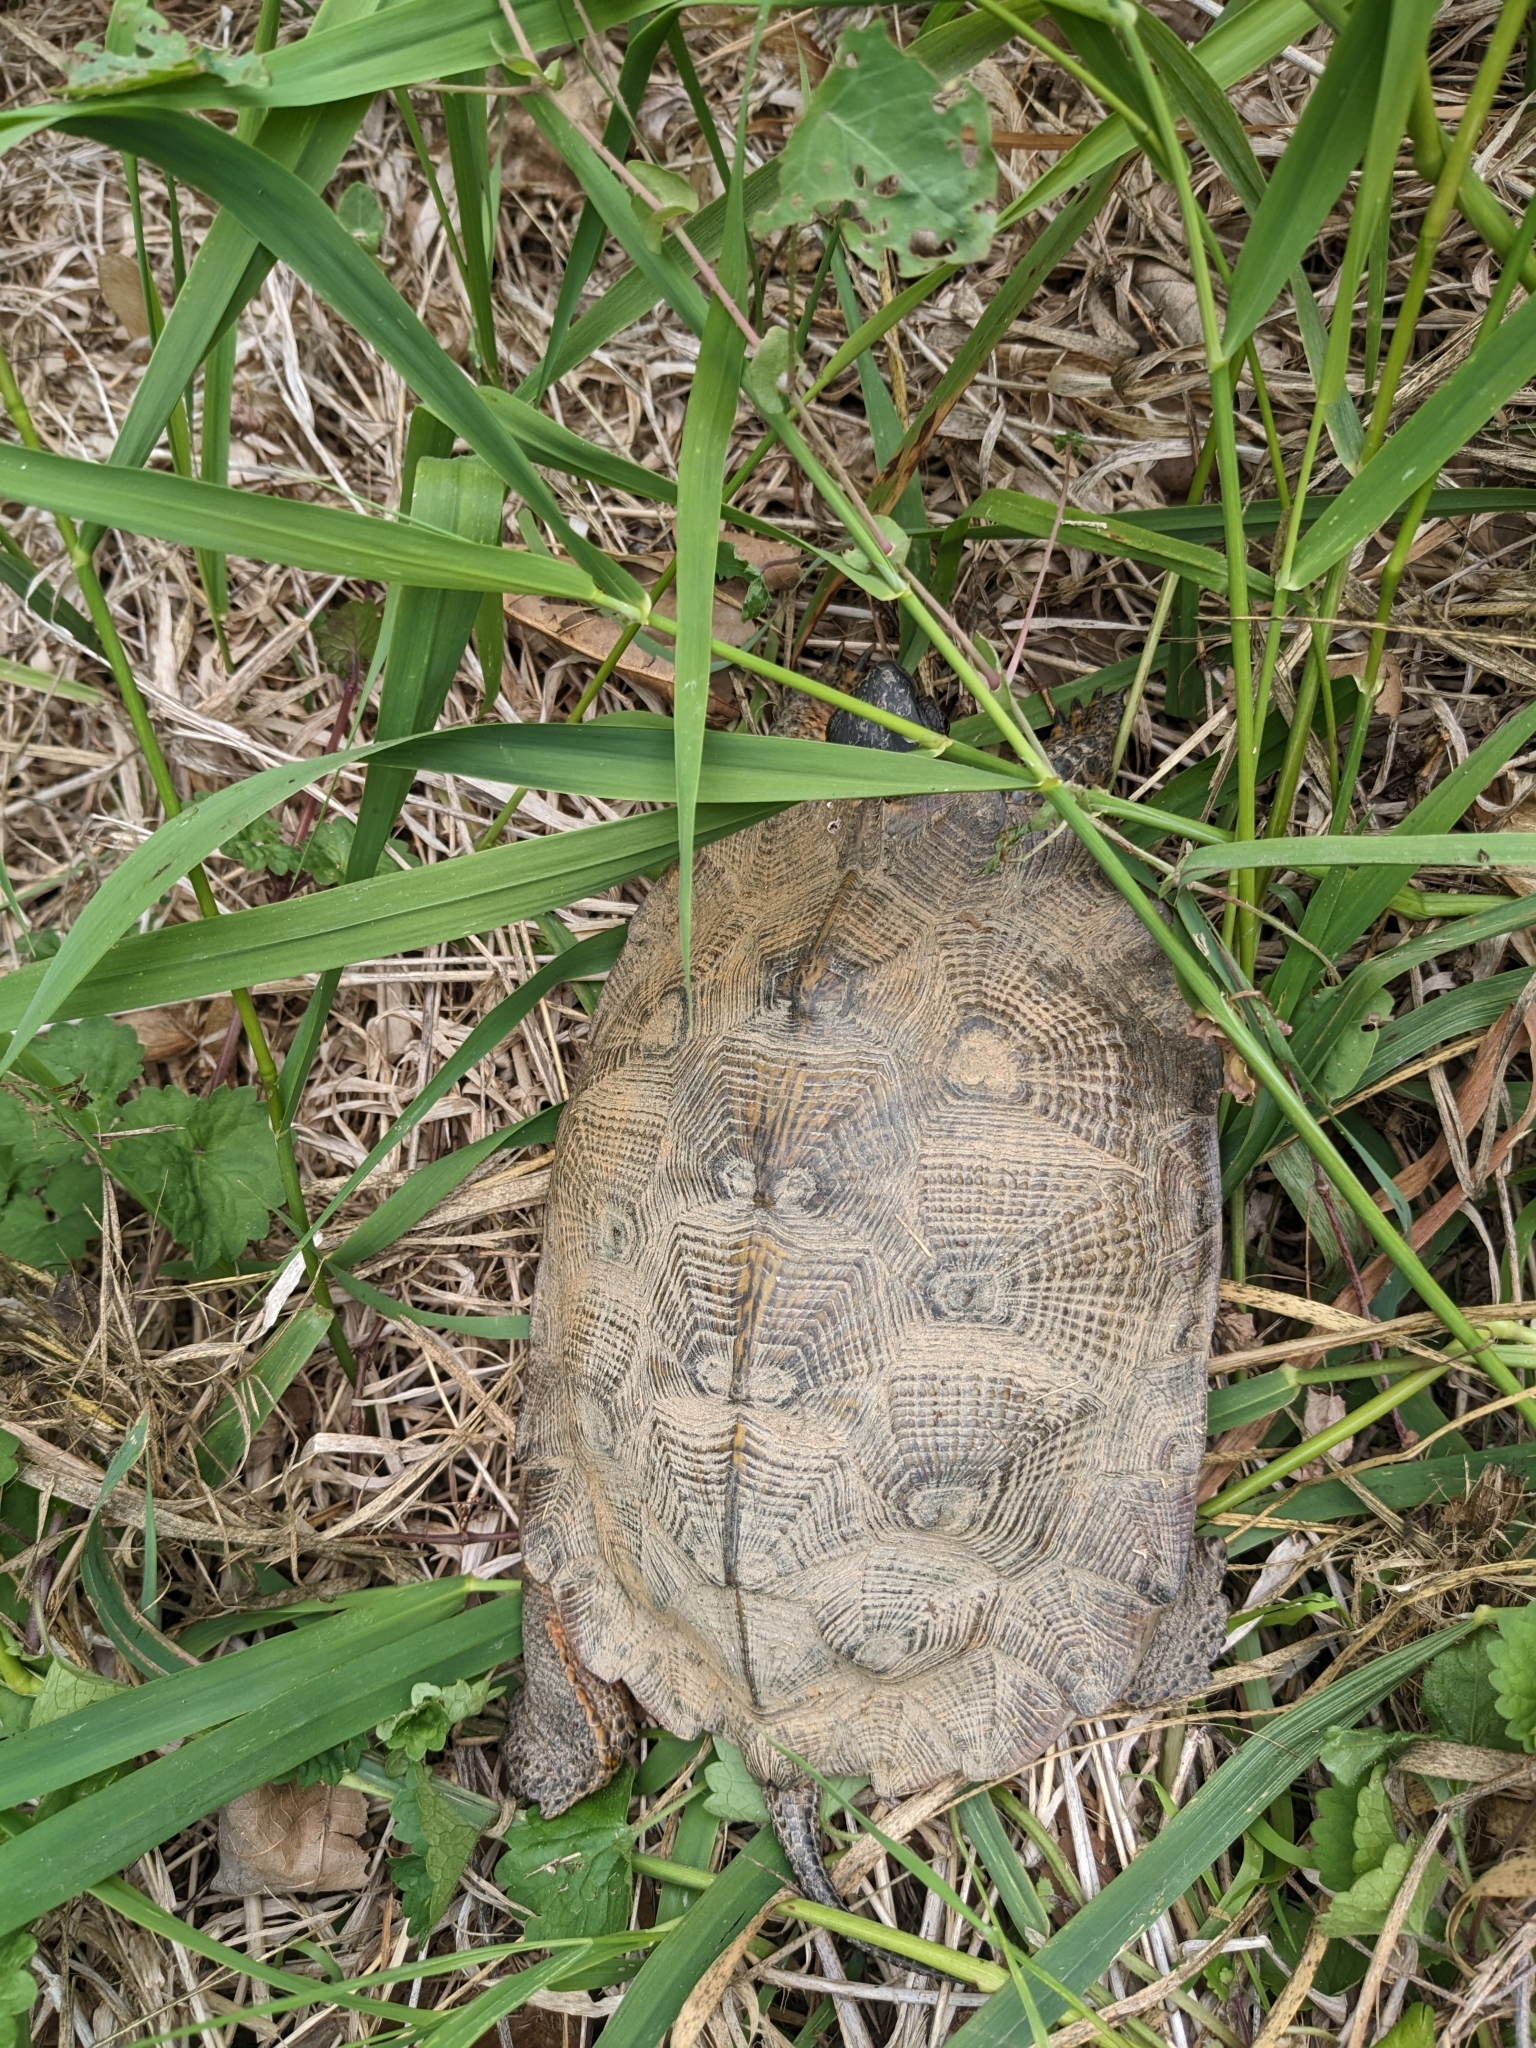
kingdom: Animalia
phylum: Chordata
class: Testudines
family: Emydidae
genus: Glyptemys
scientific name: Glyptemys insculpta
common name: Wood turtle
